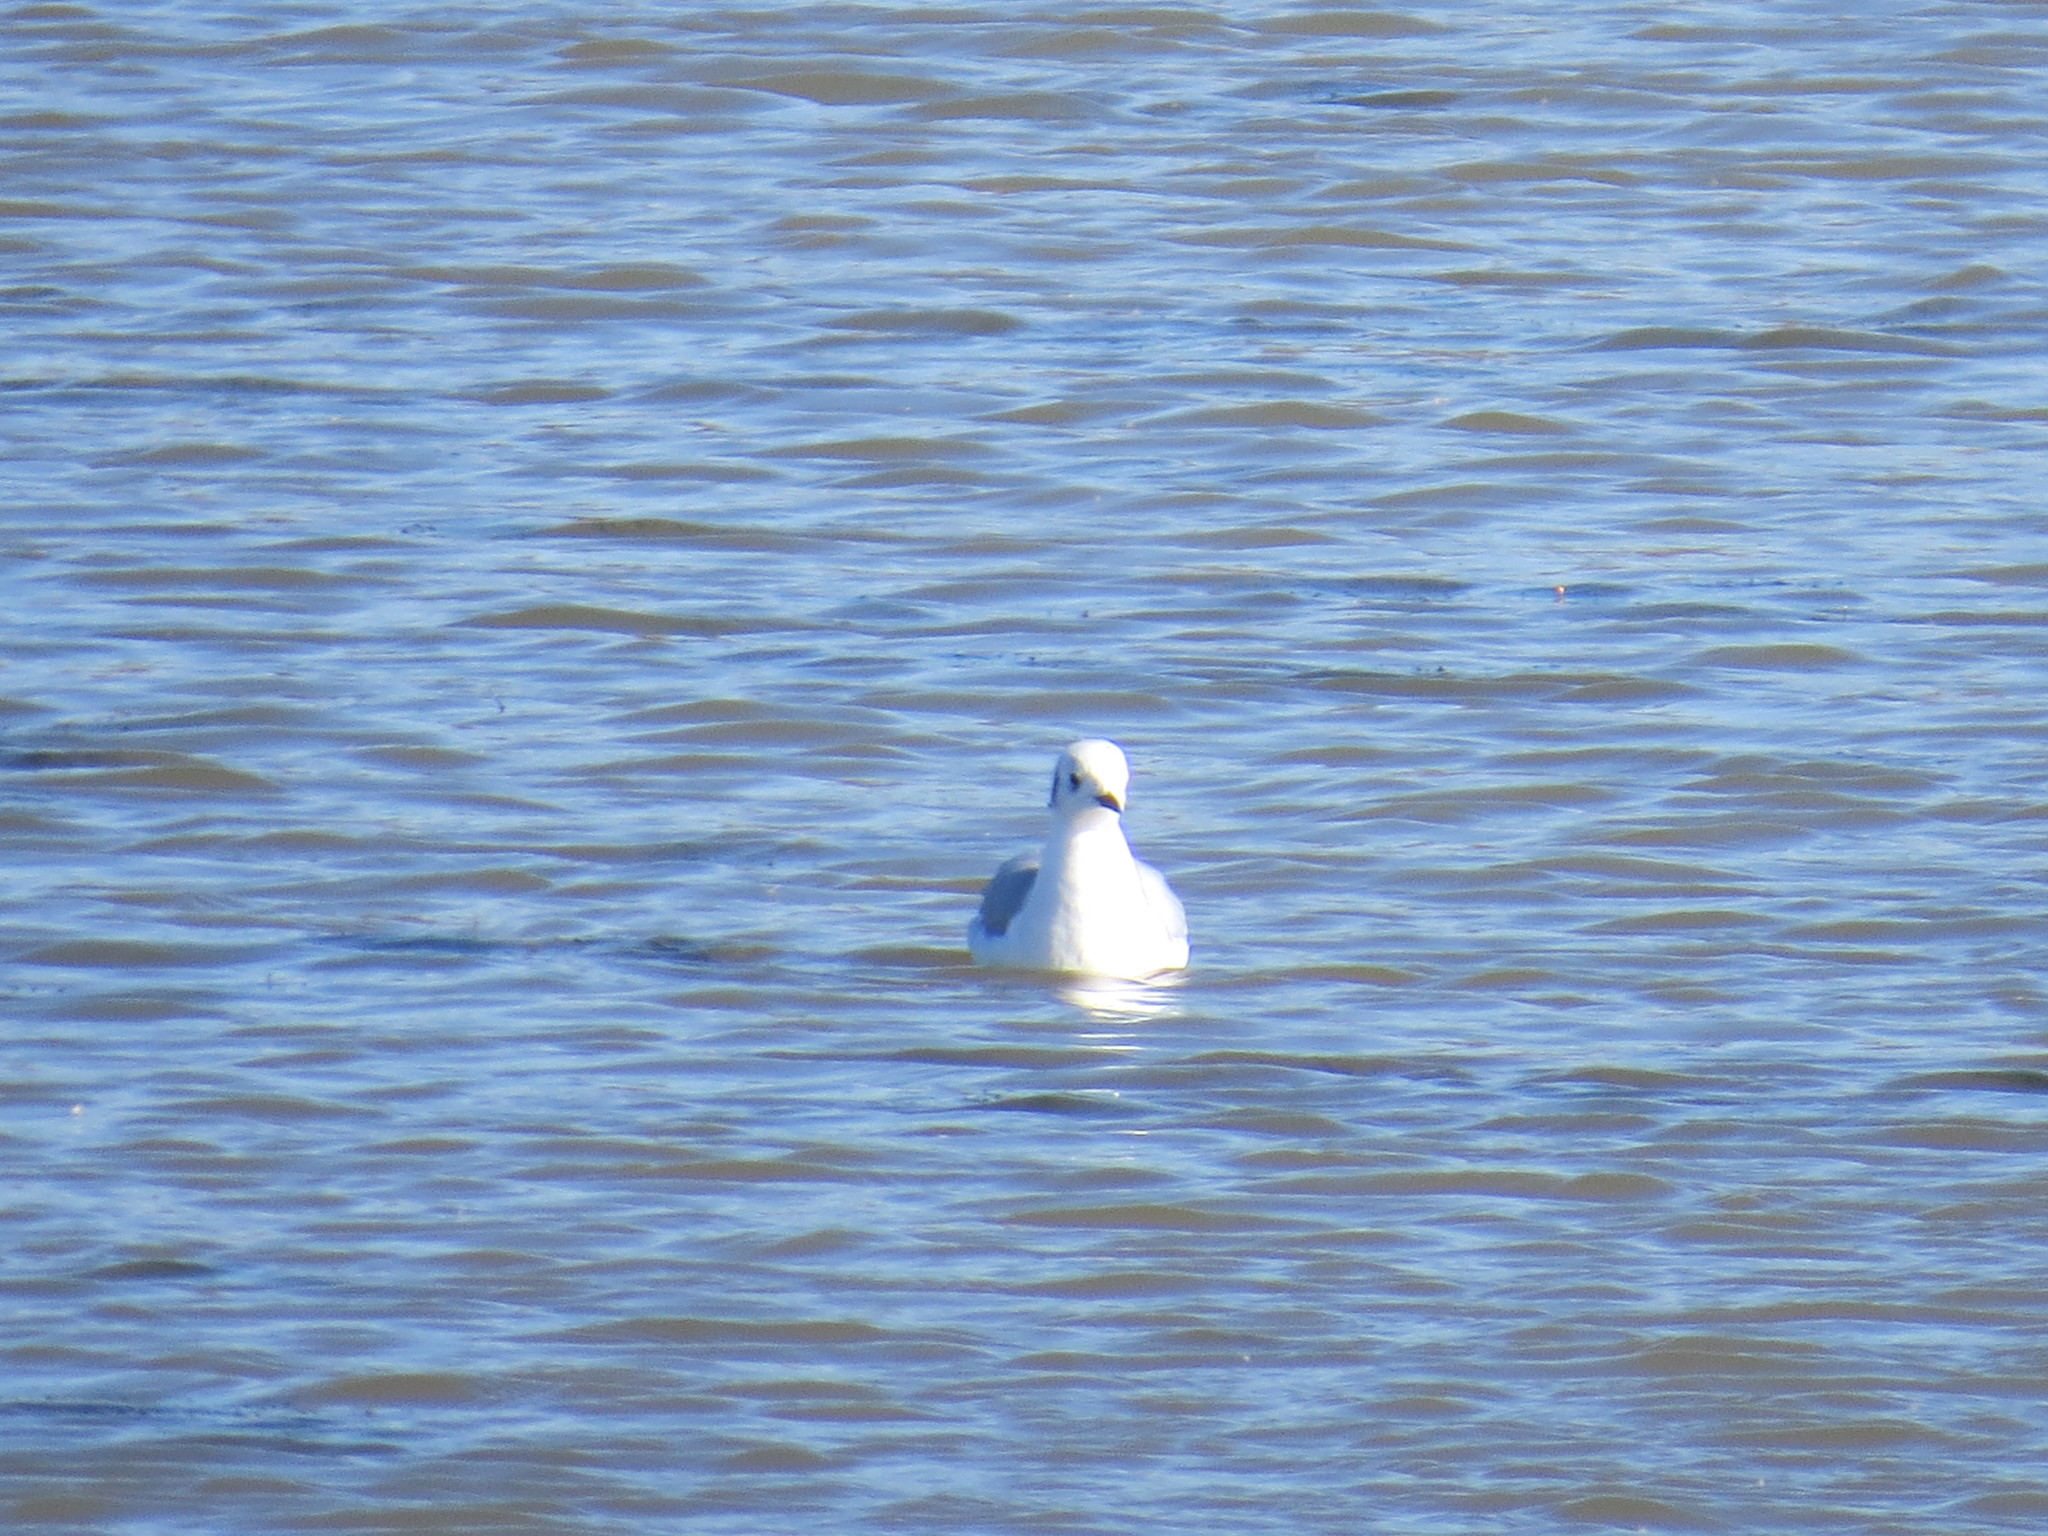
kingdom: Animalia
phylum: Chordata
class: Aves
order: Charadriiformes
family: Laridae
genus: Chroicocephalus
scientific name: Chroicocephalus philadelphia
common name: Bonaparte's gull
